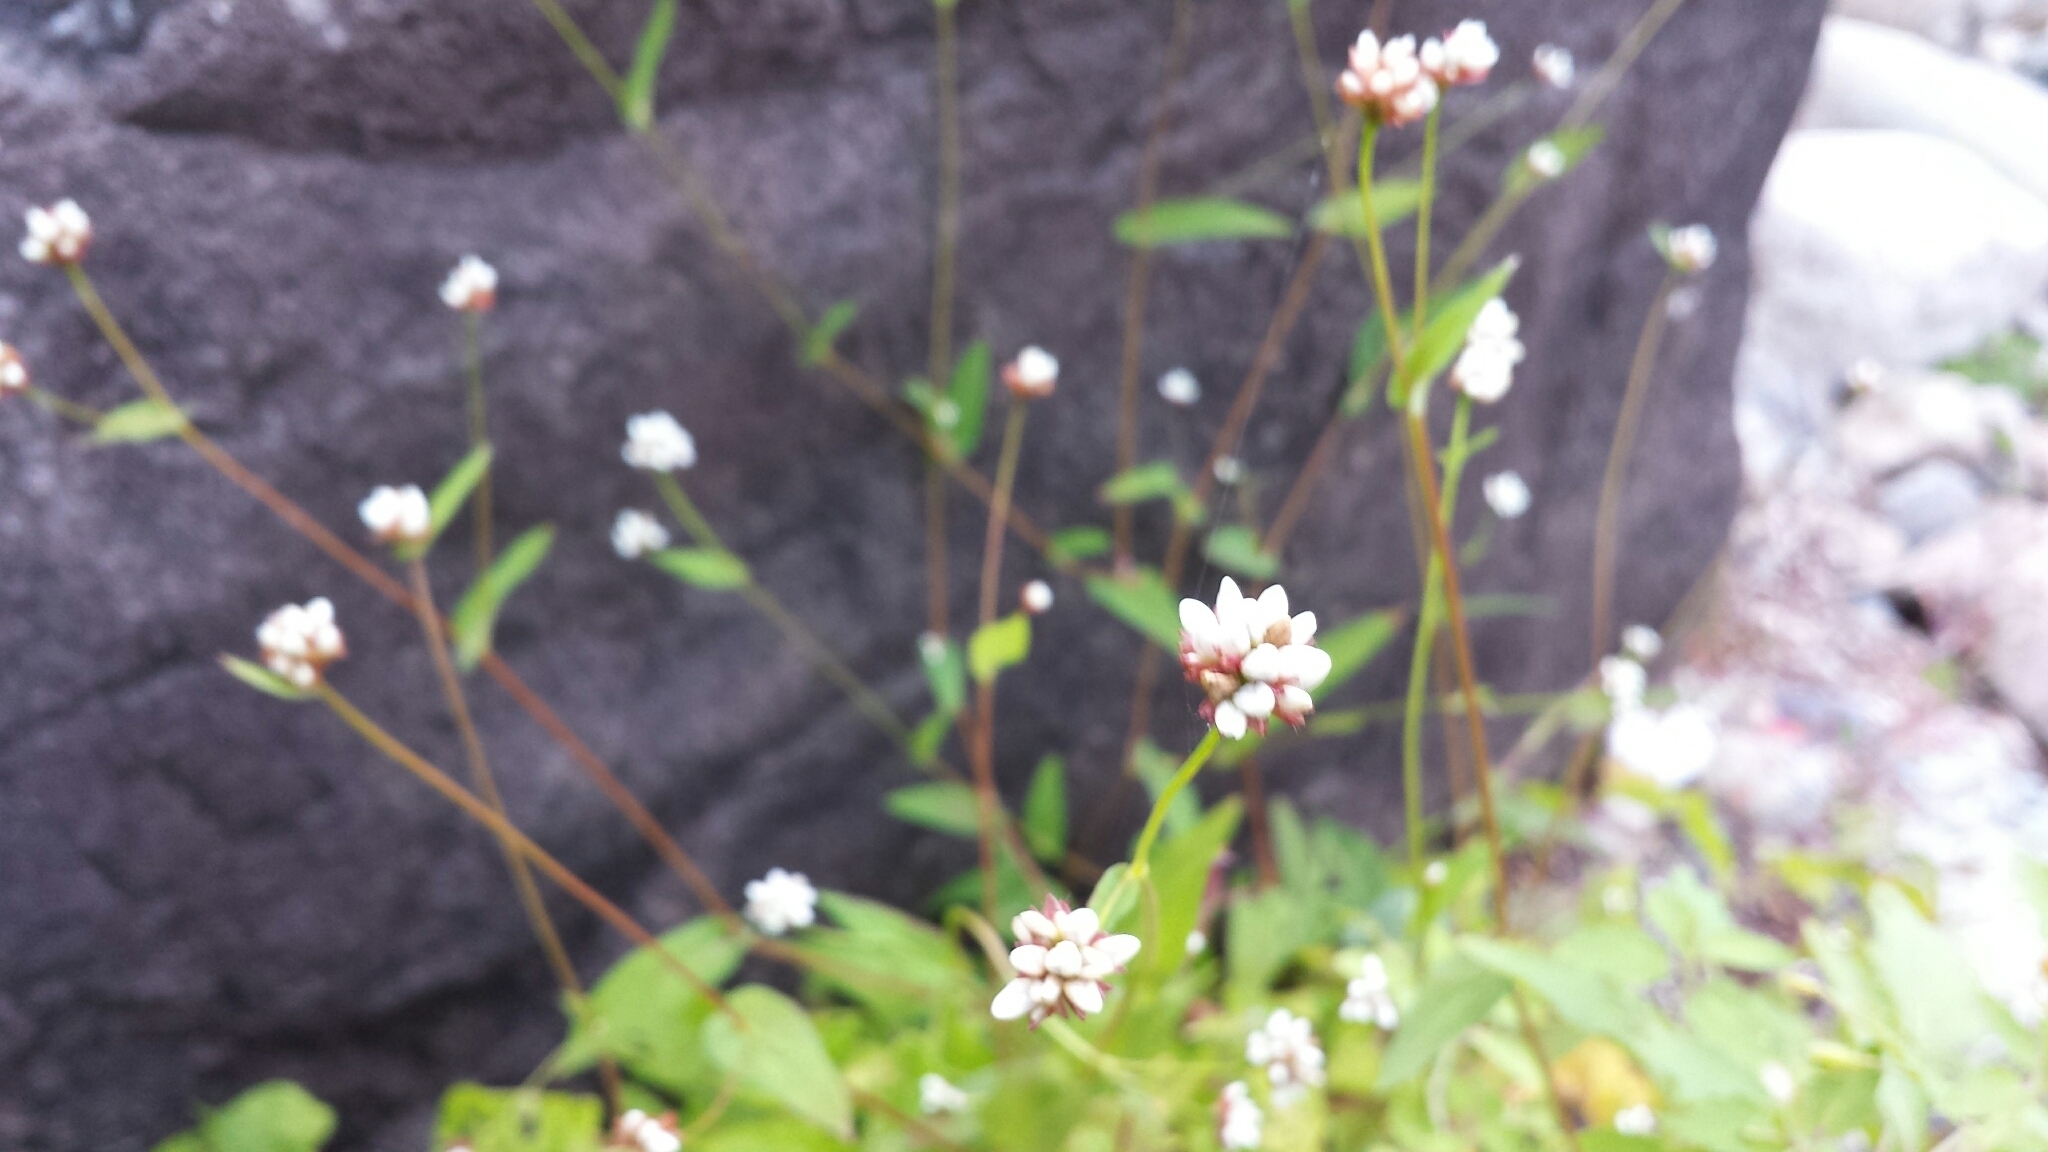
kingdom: Plantae
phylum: Tracheophyta
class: Magnoliopsida
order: Caryophyllales
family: Polygonaceae
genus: Persicaria
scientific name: Persicaria sagittata
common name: American tearthumb
